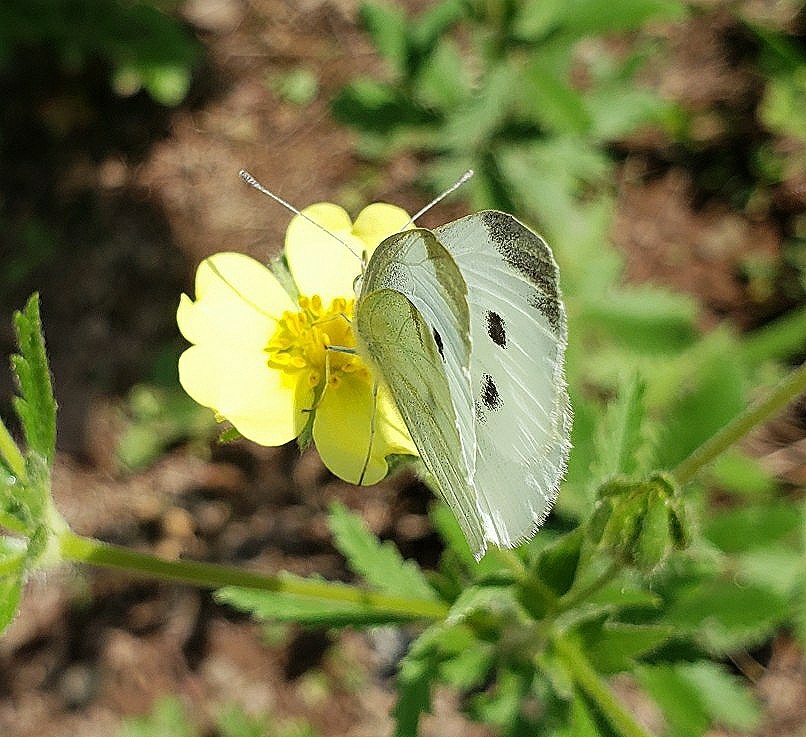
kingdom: Animalia
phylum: Arthropoda
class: Insecta
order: Lepidoptera
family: Pieridae
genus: Pieris
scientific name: Pieris rapae
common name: Small white
